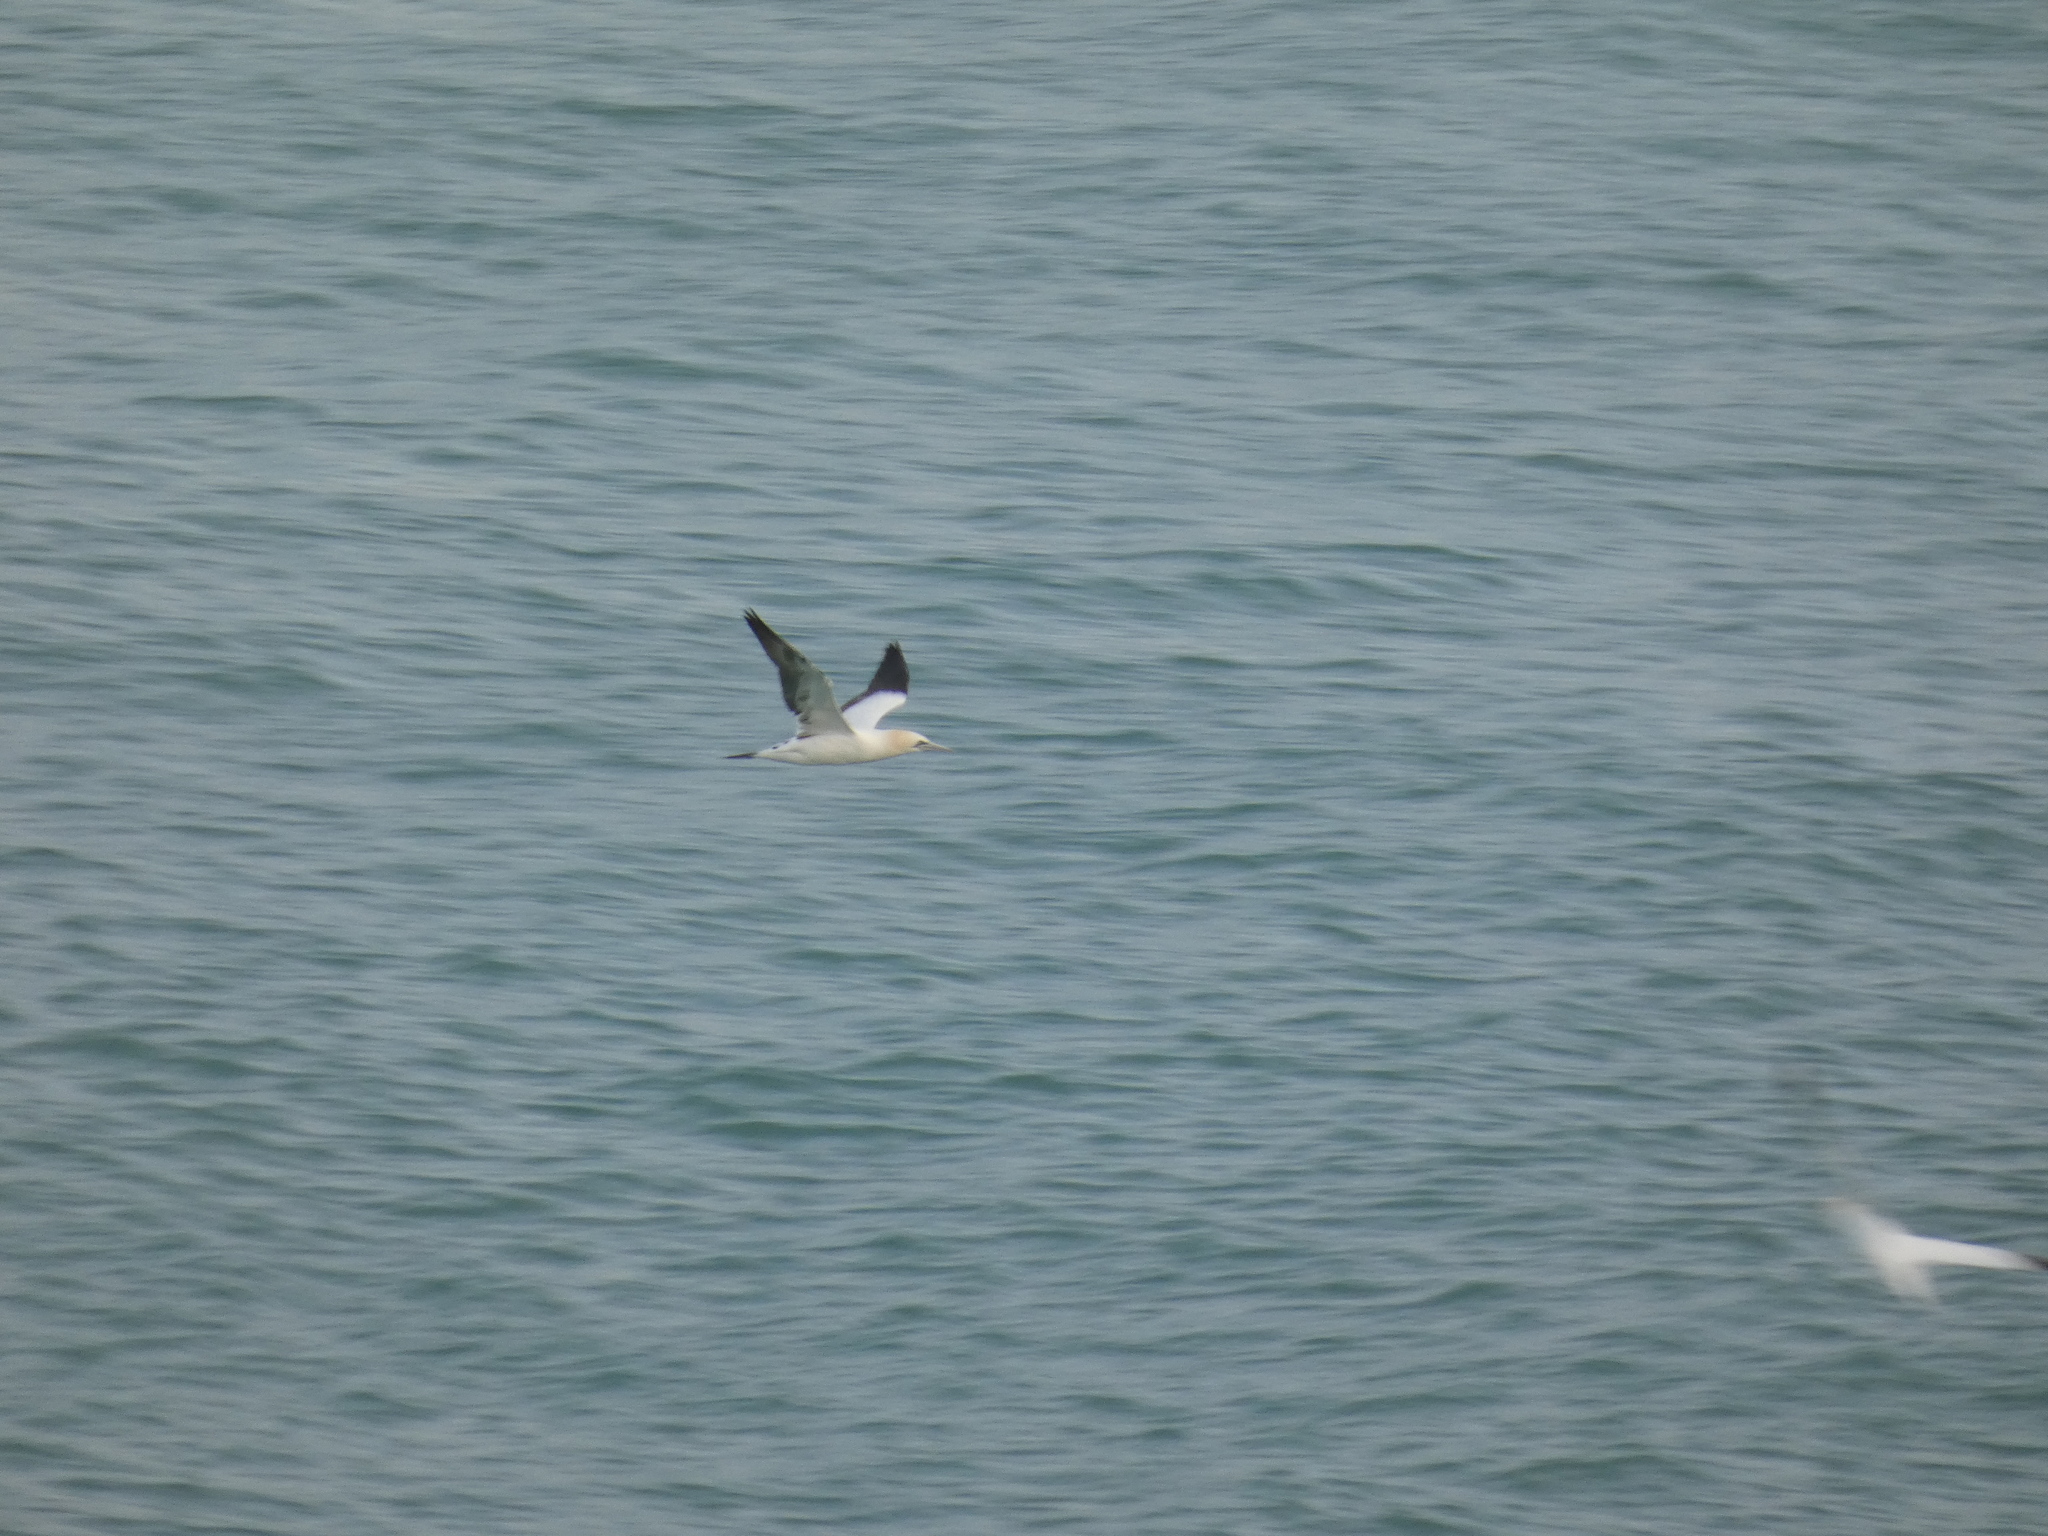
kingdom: Animalia
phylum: Chordata
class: Aves
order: Suliformes
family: Sulidae
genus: Morus
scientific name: Morus bassanus
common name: Northern gannet
